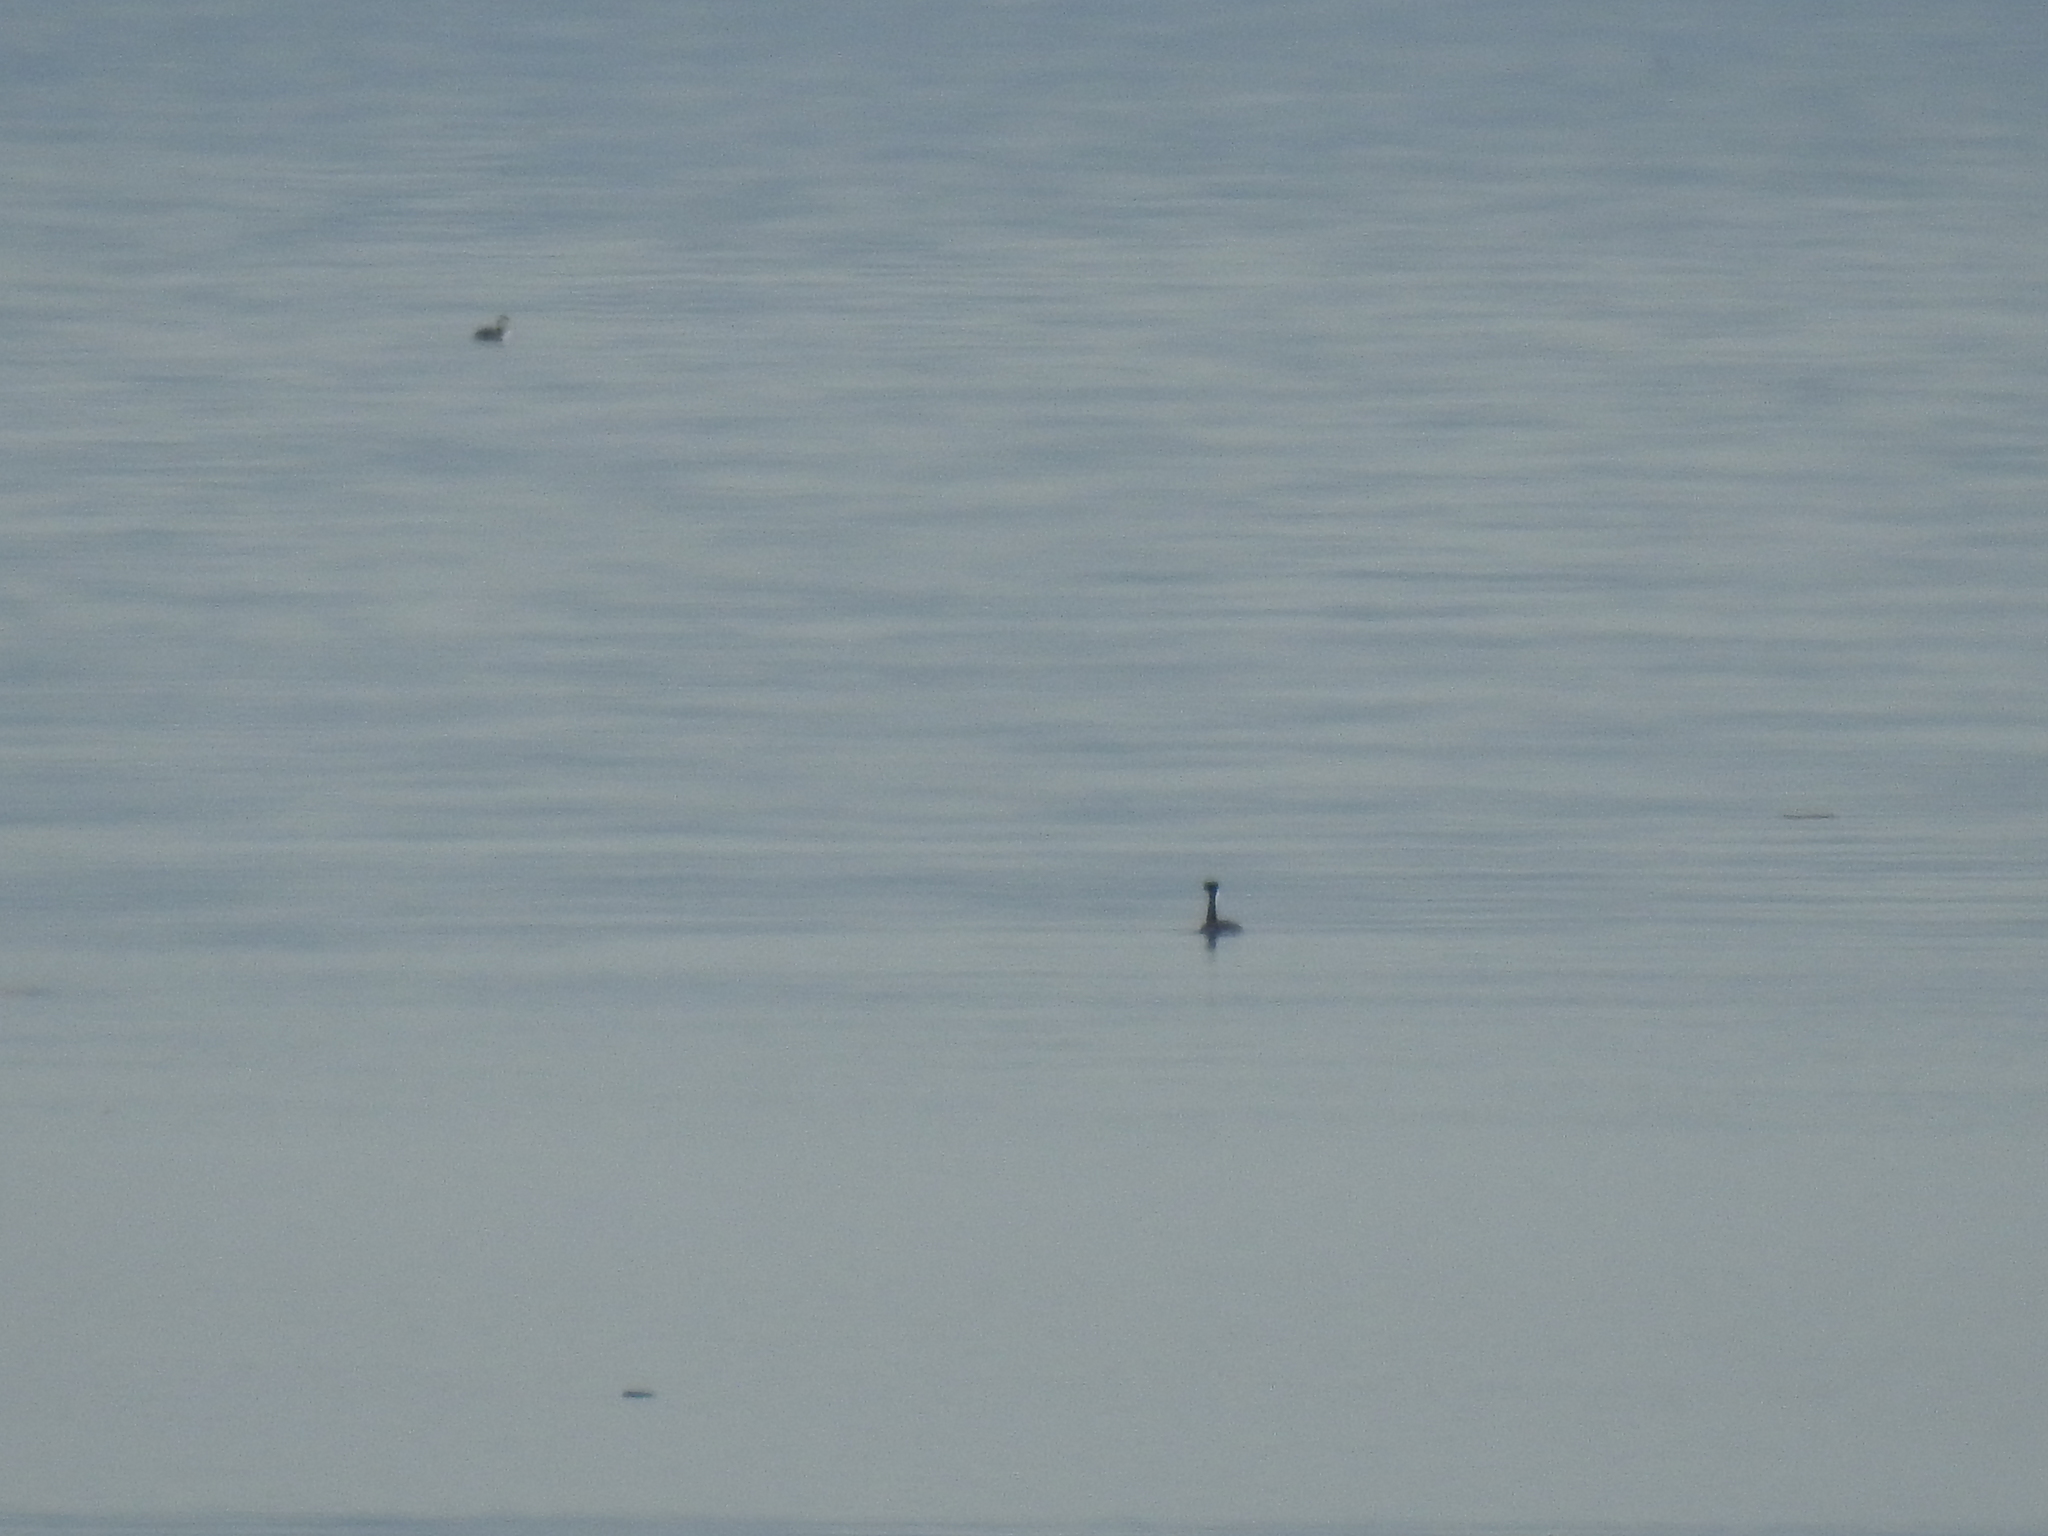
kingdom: Animalia
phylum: Chordata
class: Aves
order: Podicipediformes
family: Podicipedidae
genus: Aechmophorus
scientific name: Aechmophorus occidentalis
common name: Western grebe
